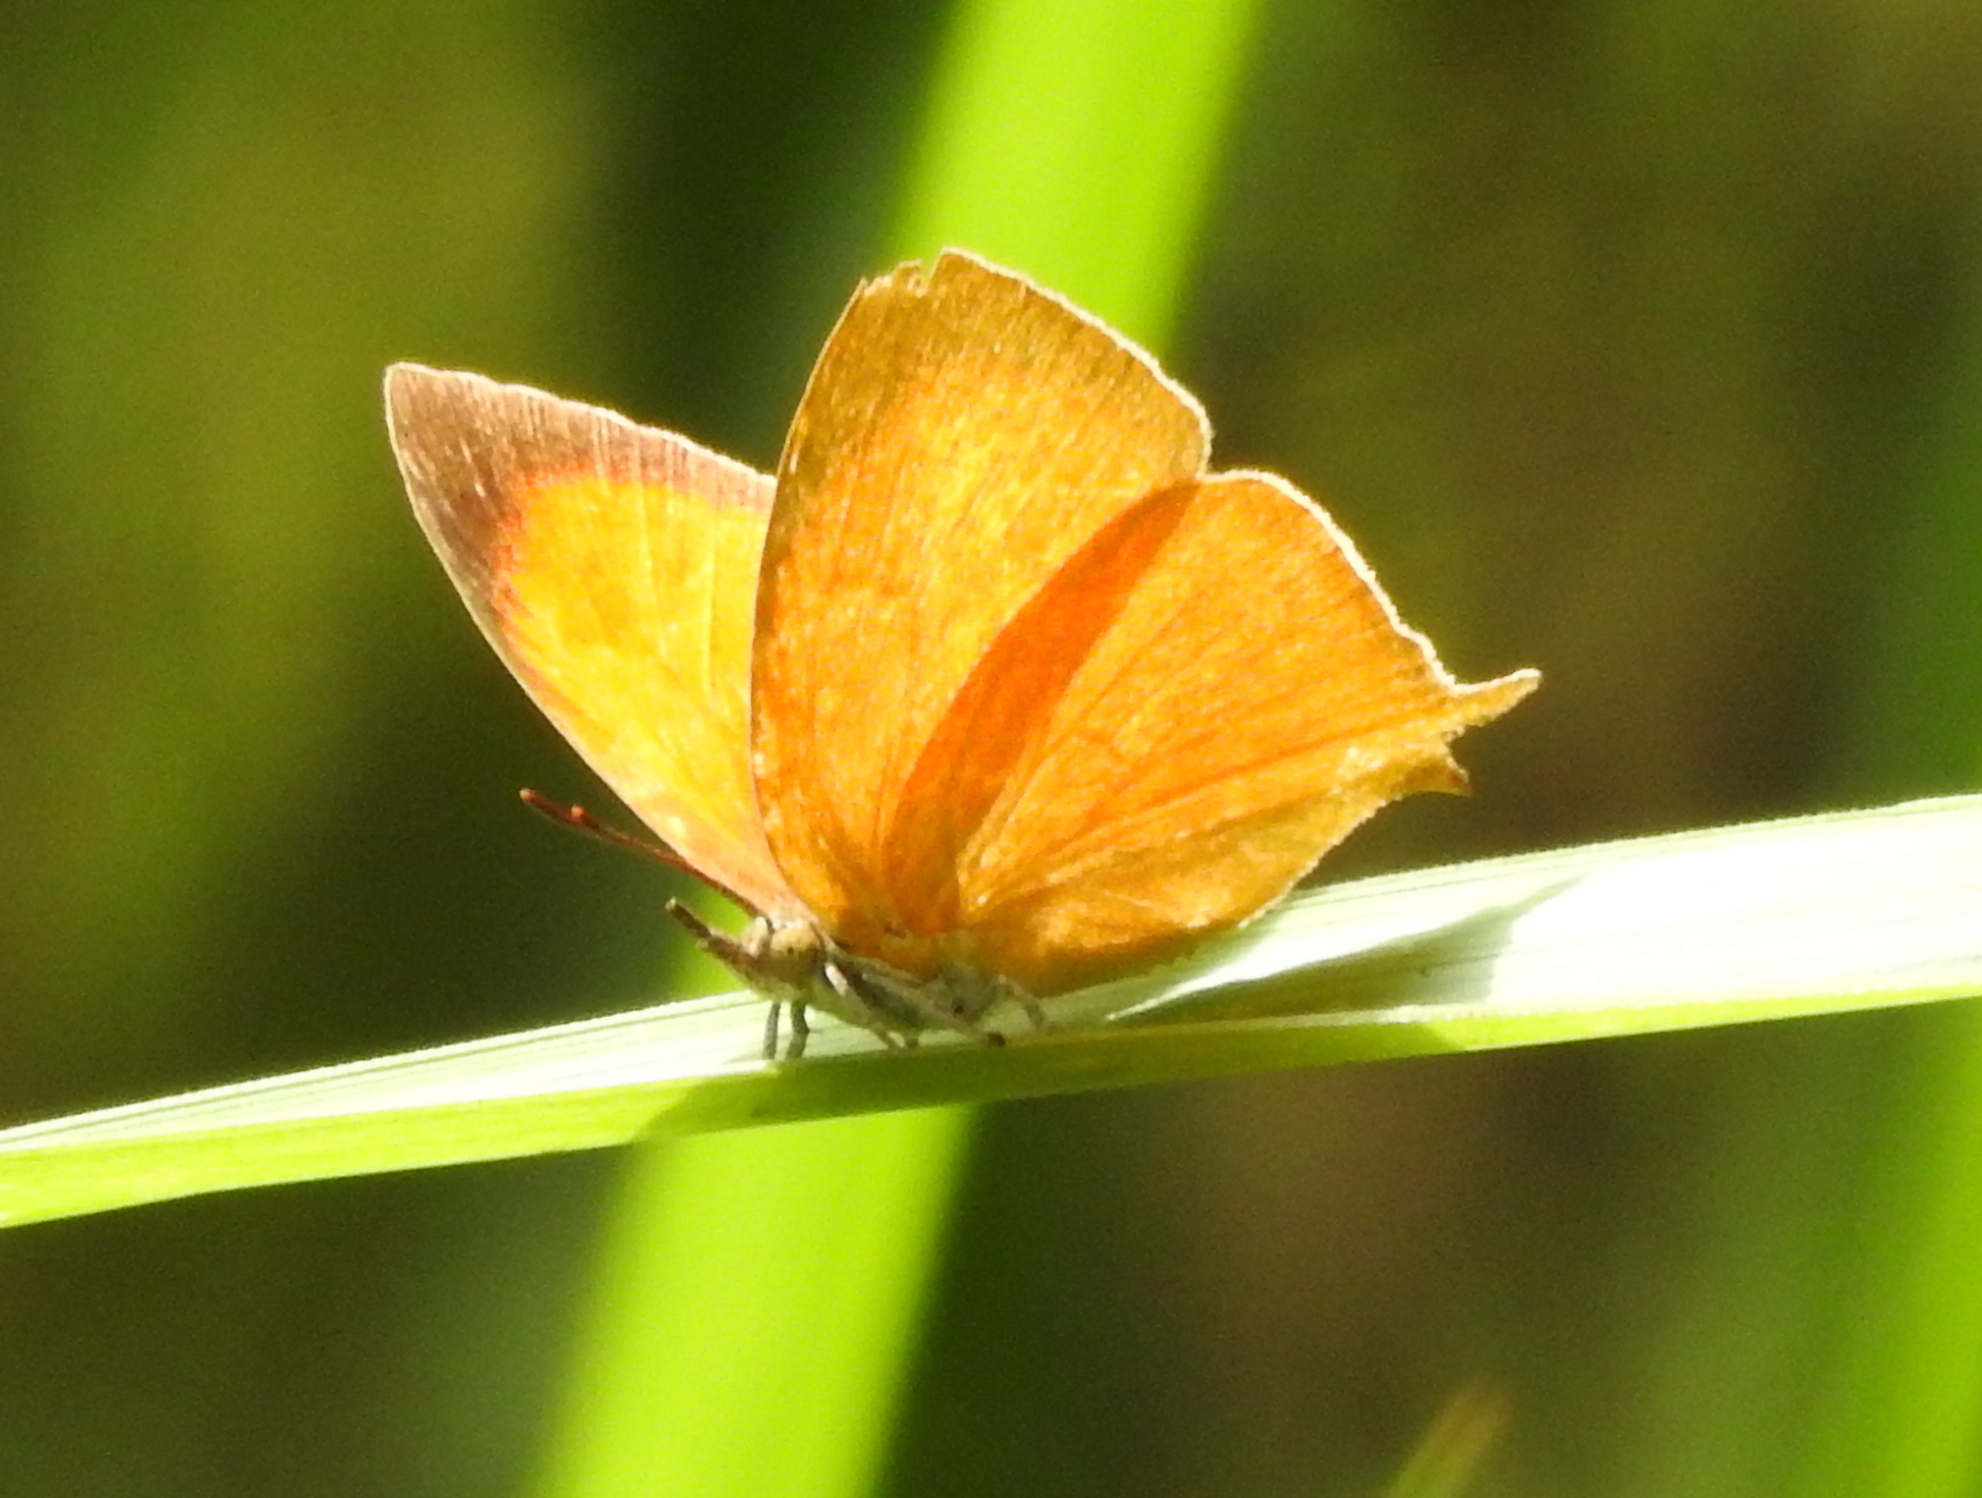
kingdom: Animalia
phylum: Arthropoda
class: Insecta
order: Lepidoptera
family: Lycaenidae
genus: Loxura
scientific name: Loxura atymnus
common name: Common yamfly
